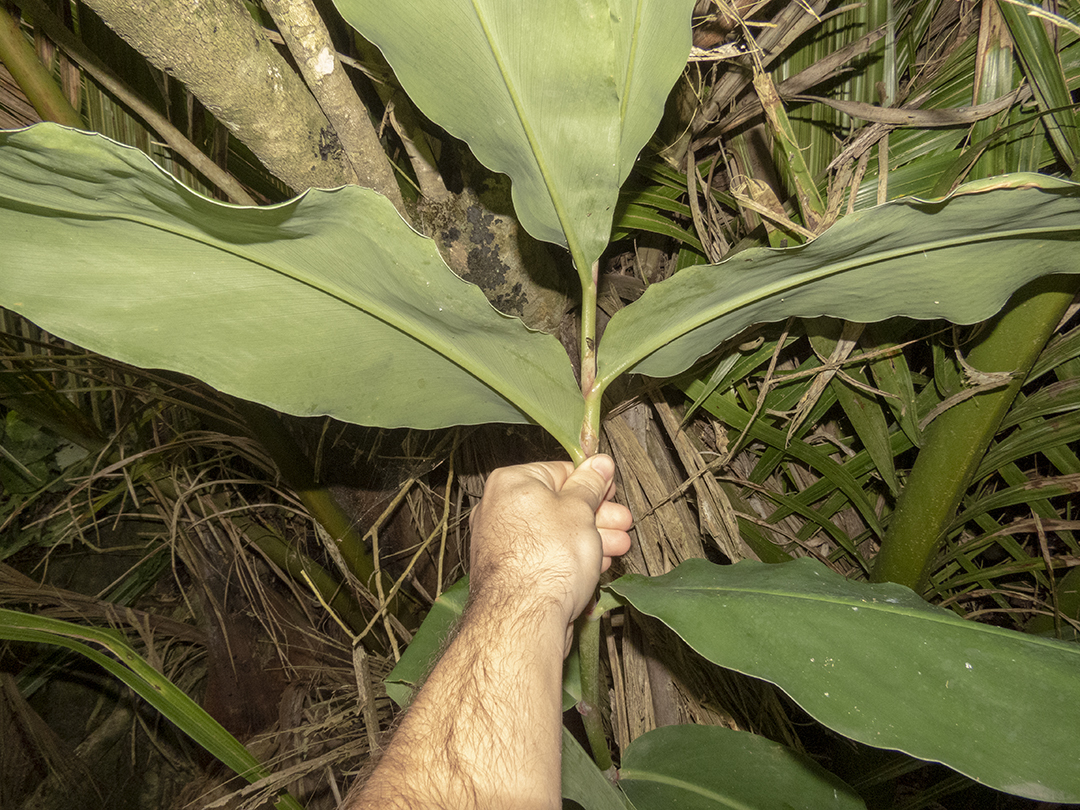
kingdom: Plantae
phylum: Tracheophyta
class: Liliopsida
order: Zingiberales
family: Zingiberaceae
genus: Hedychium
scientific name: Hedychium gardnerianum
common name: Himalayan ginger
